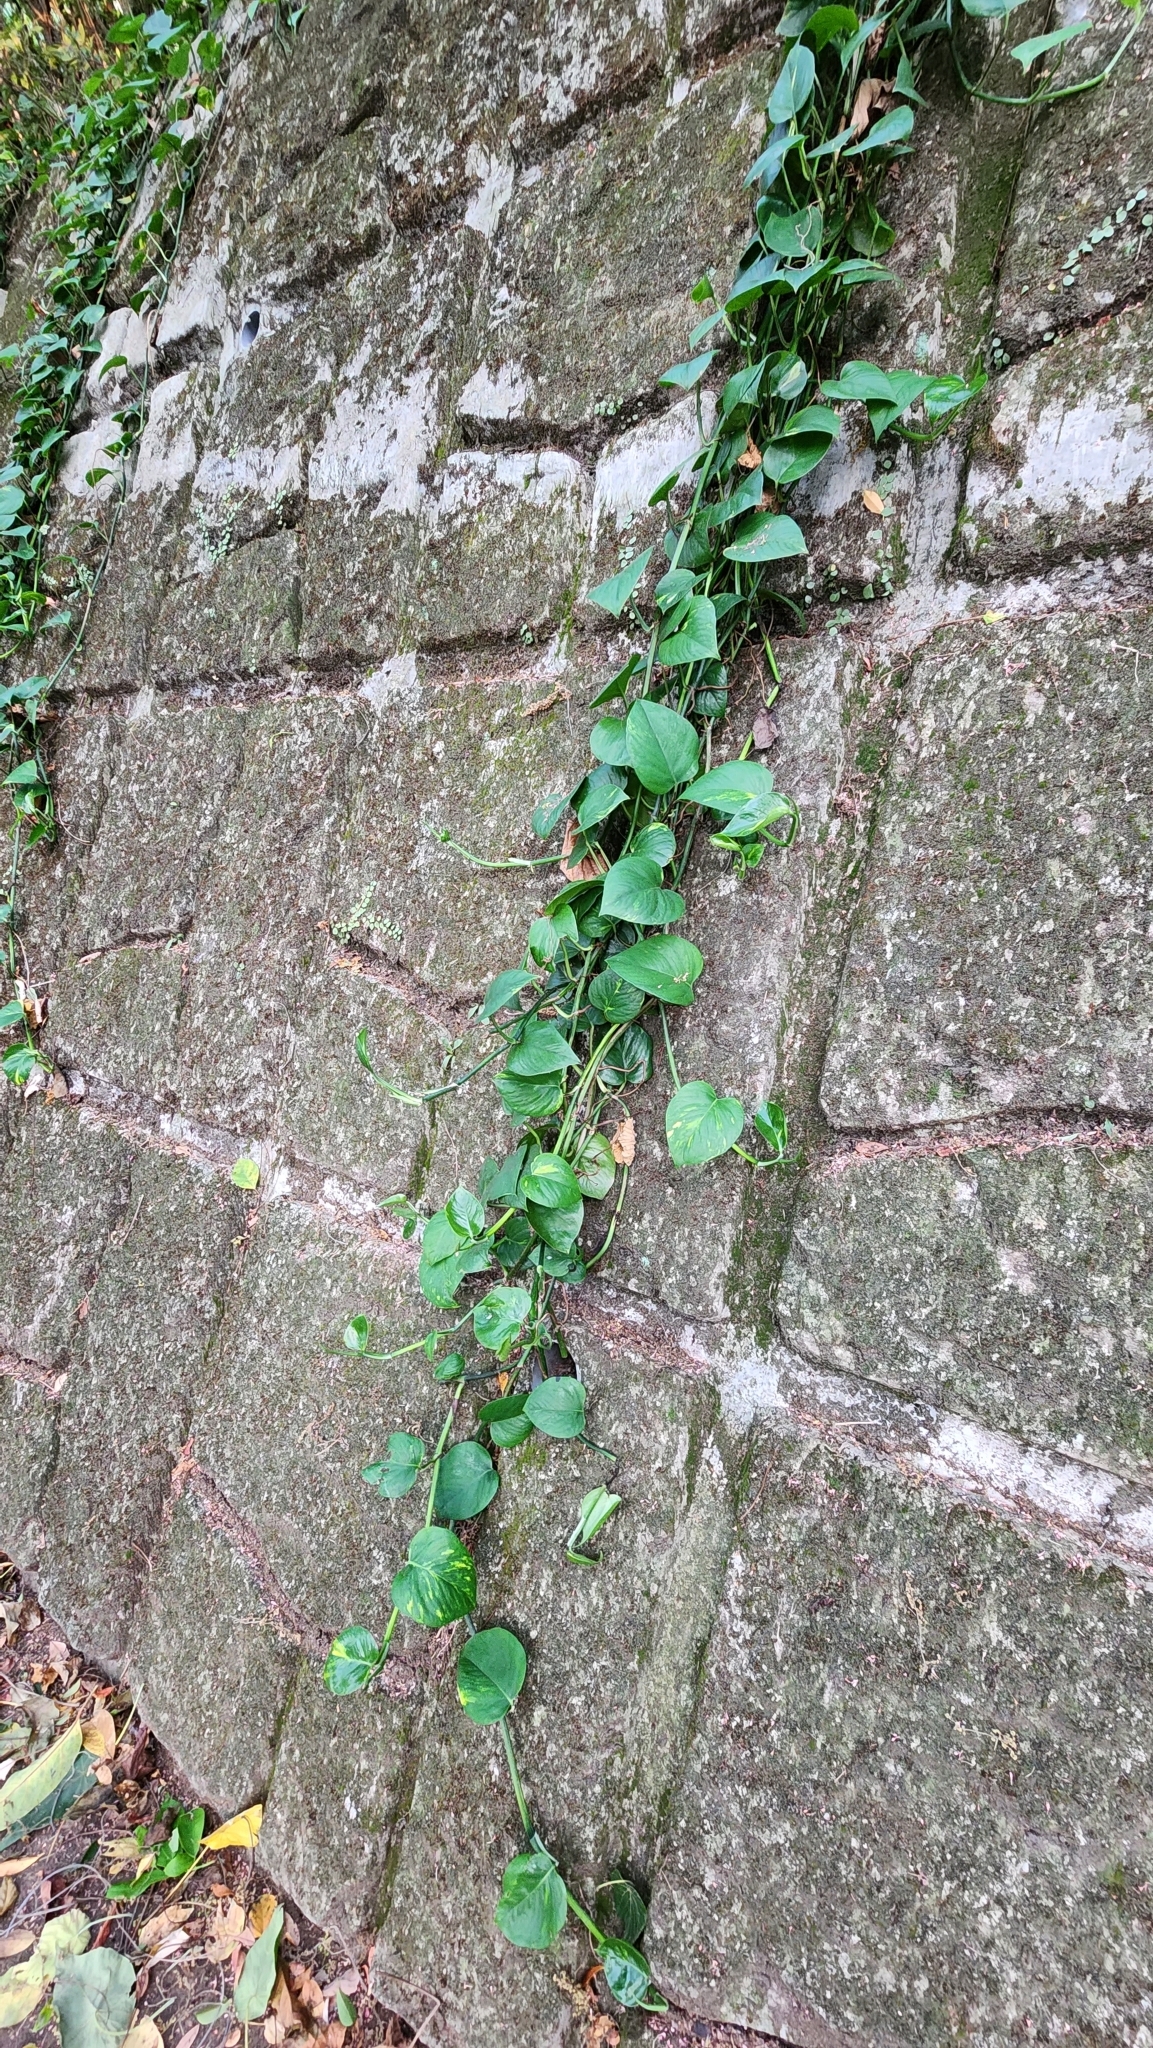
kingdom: Plantae
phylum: Tracheophyta
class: Liliopsida
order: Alismatales
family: Araceae
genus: Epipremnum
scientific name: Epipremnum aureum
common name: Golden hunter's-robe
